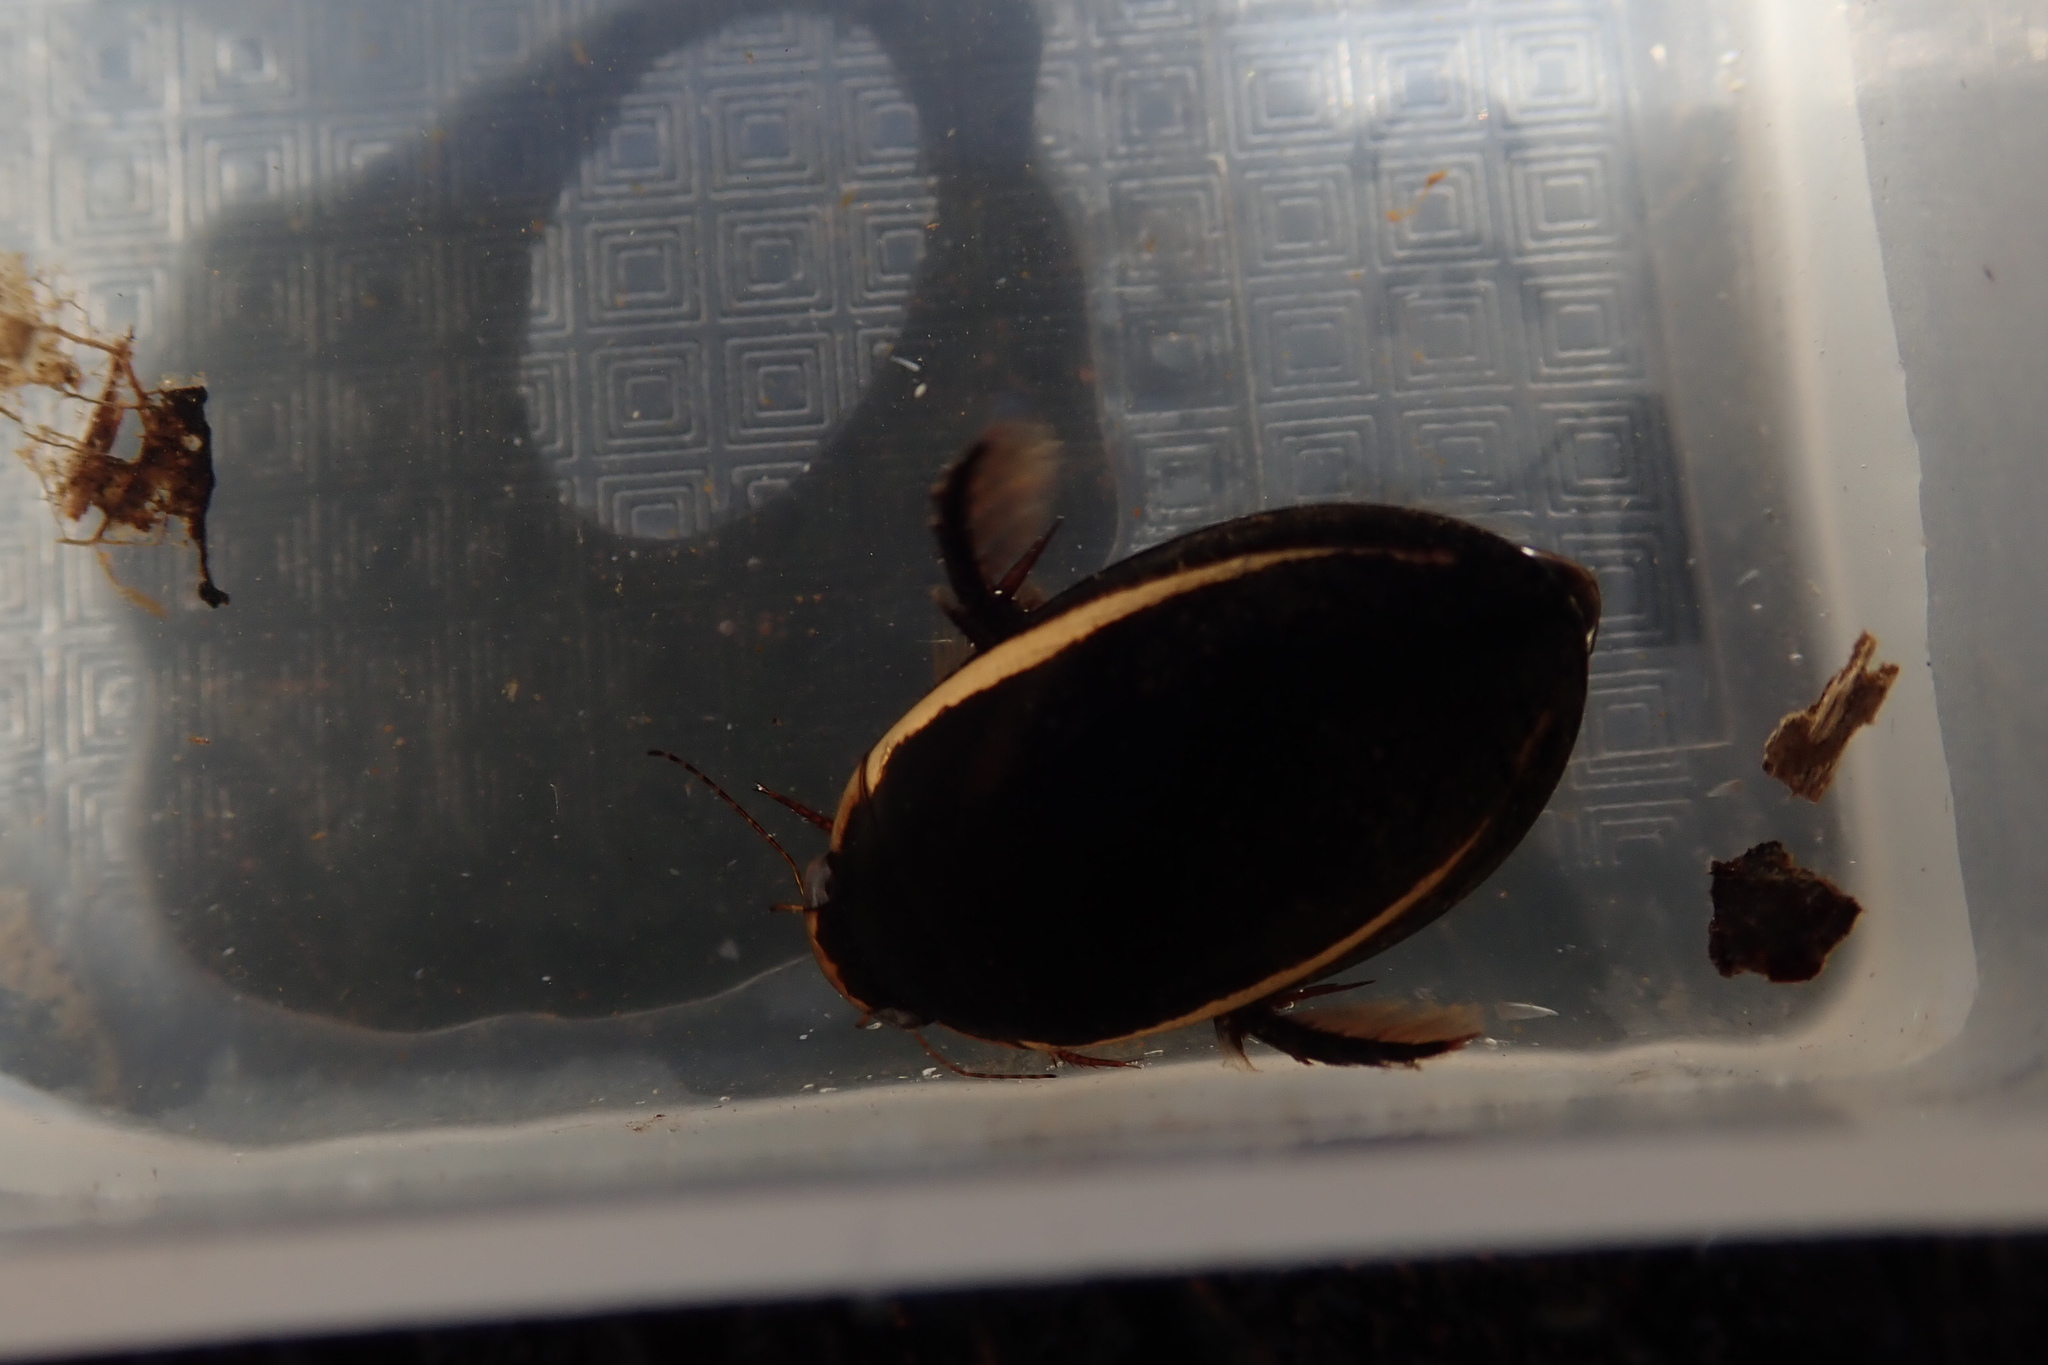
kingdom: Animalia
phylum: Arthropoda
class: Insecta
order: Coleoptera
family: Dytiscidae
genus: Hydaticus
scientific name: Hydaticus exclamationis
